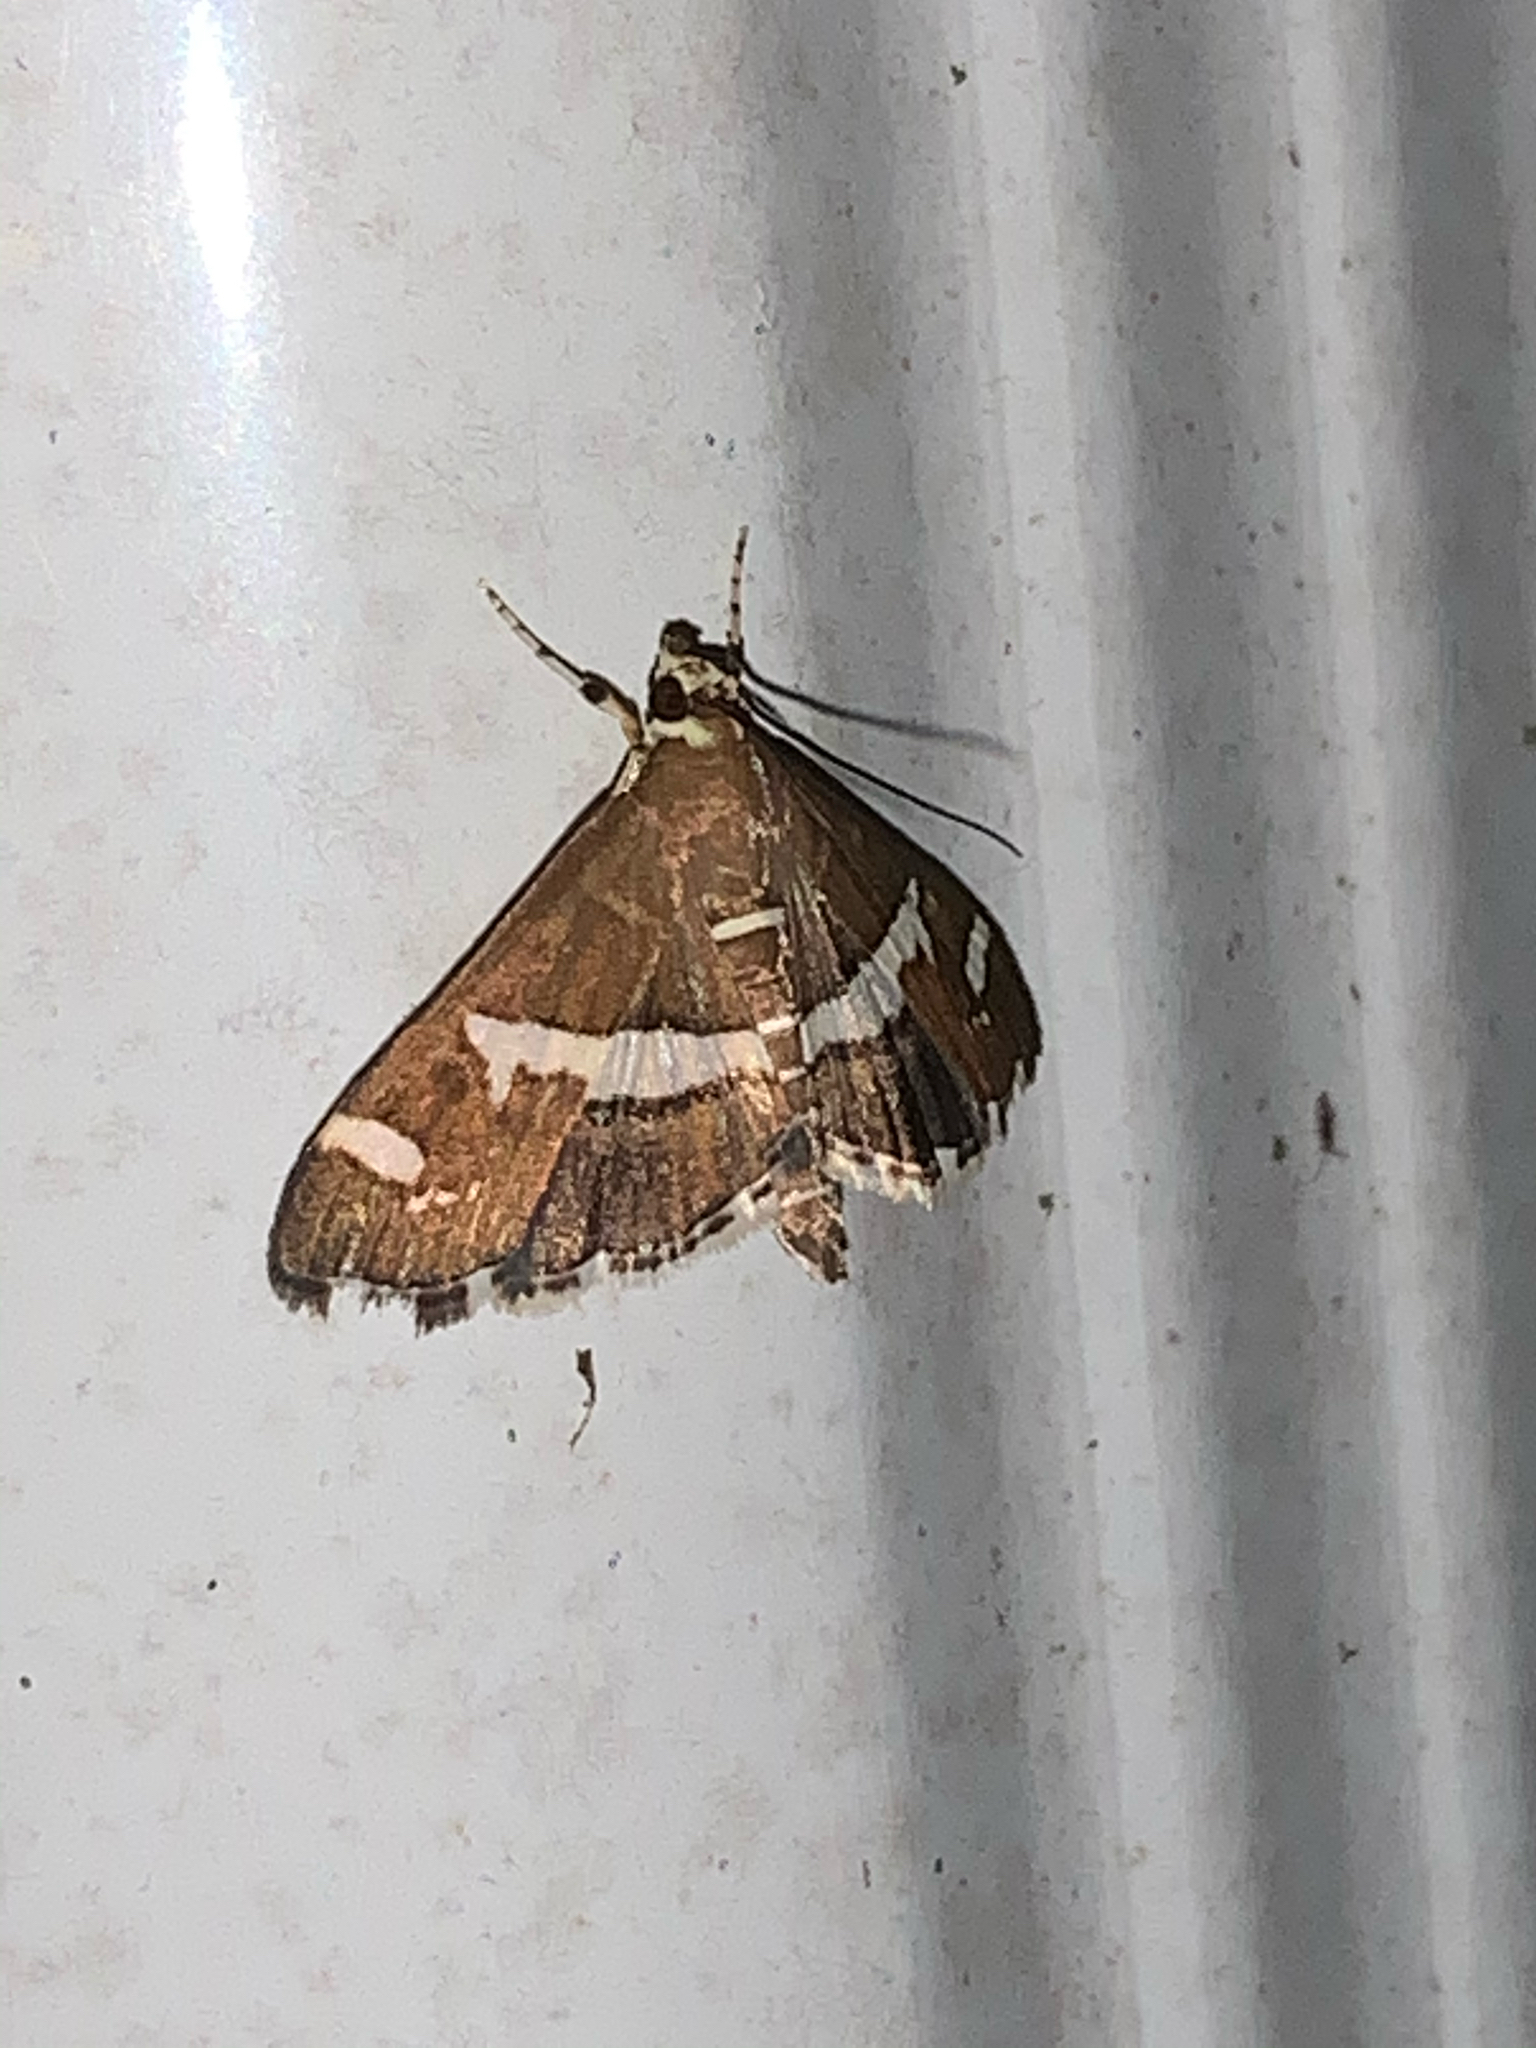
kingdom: Animalia
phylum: Arthropoda
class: Insecta
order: Lepidoptera
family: Crambidae
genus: Spoladea
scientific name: Spoladea recurvalis
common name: Beet webworm moth
